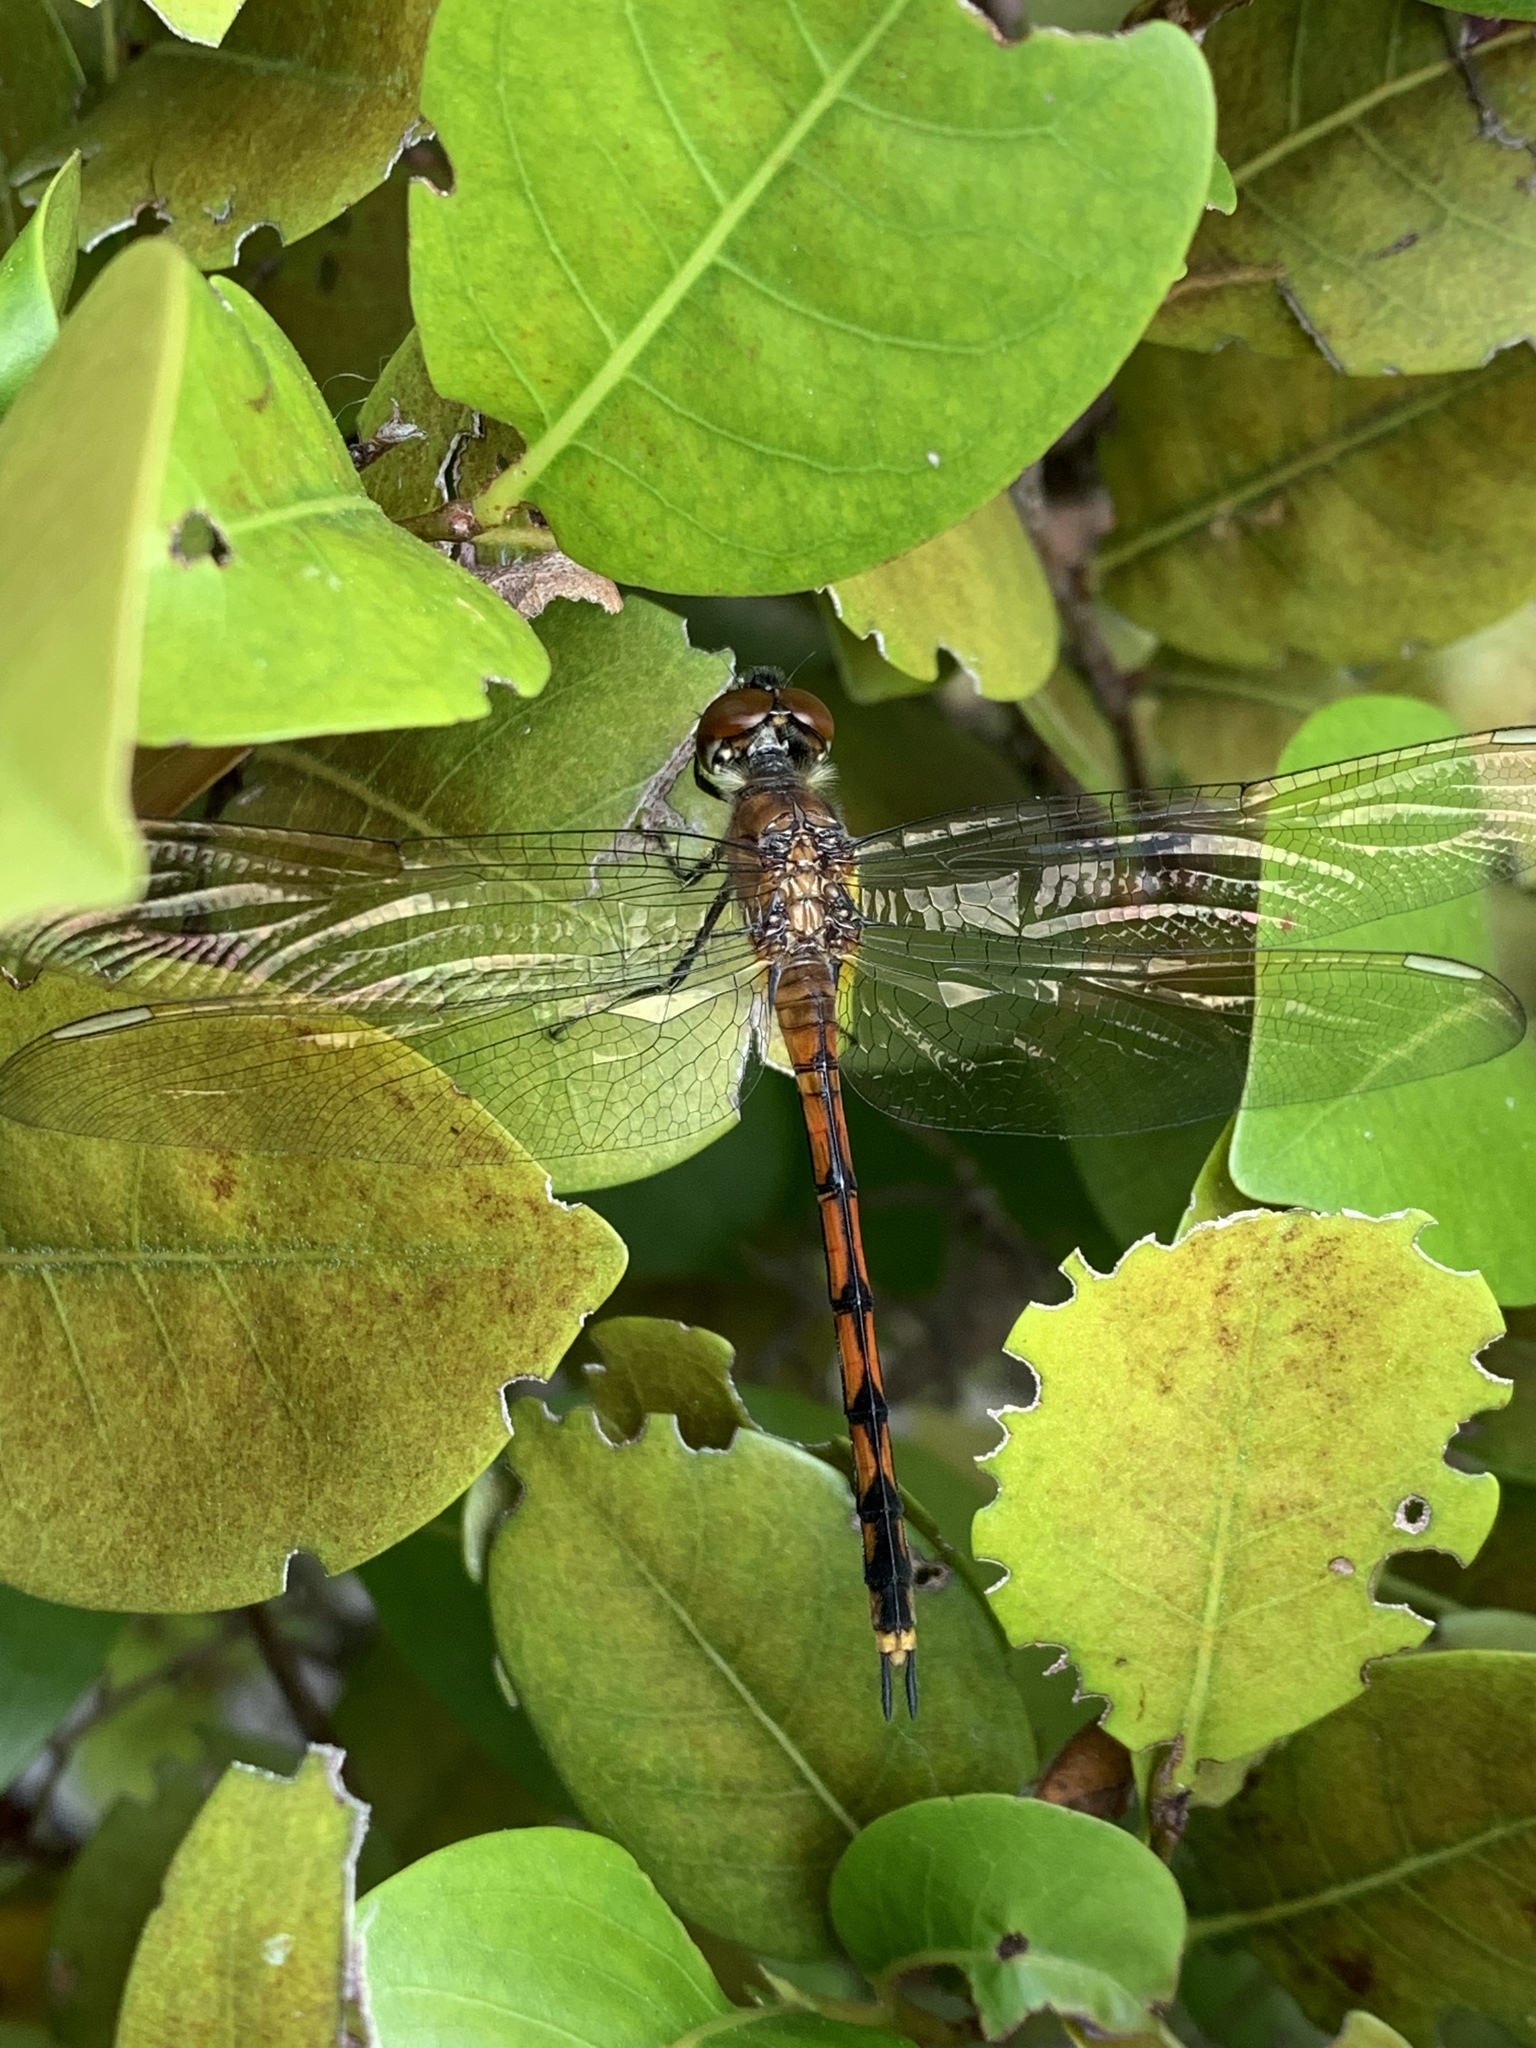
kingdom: Animalia
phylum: Arthropoda
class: Insecta
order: Odonata
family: Libellulidae
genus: Brachymesia
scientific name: Brachymesia gravida
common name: Four-spotted pennant
